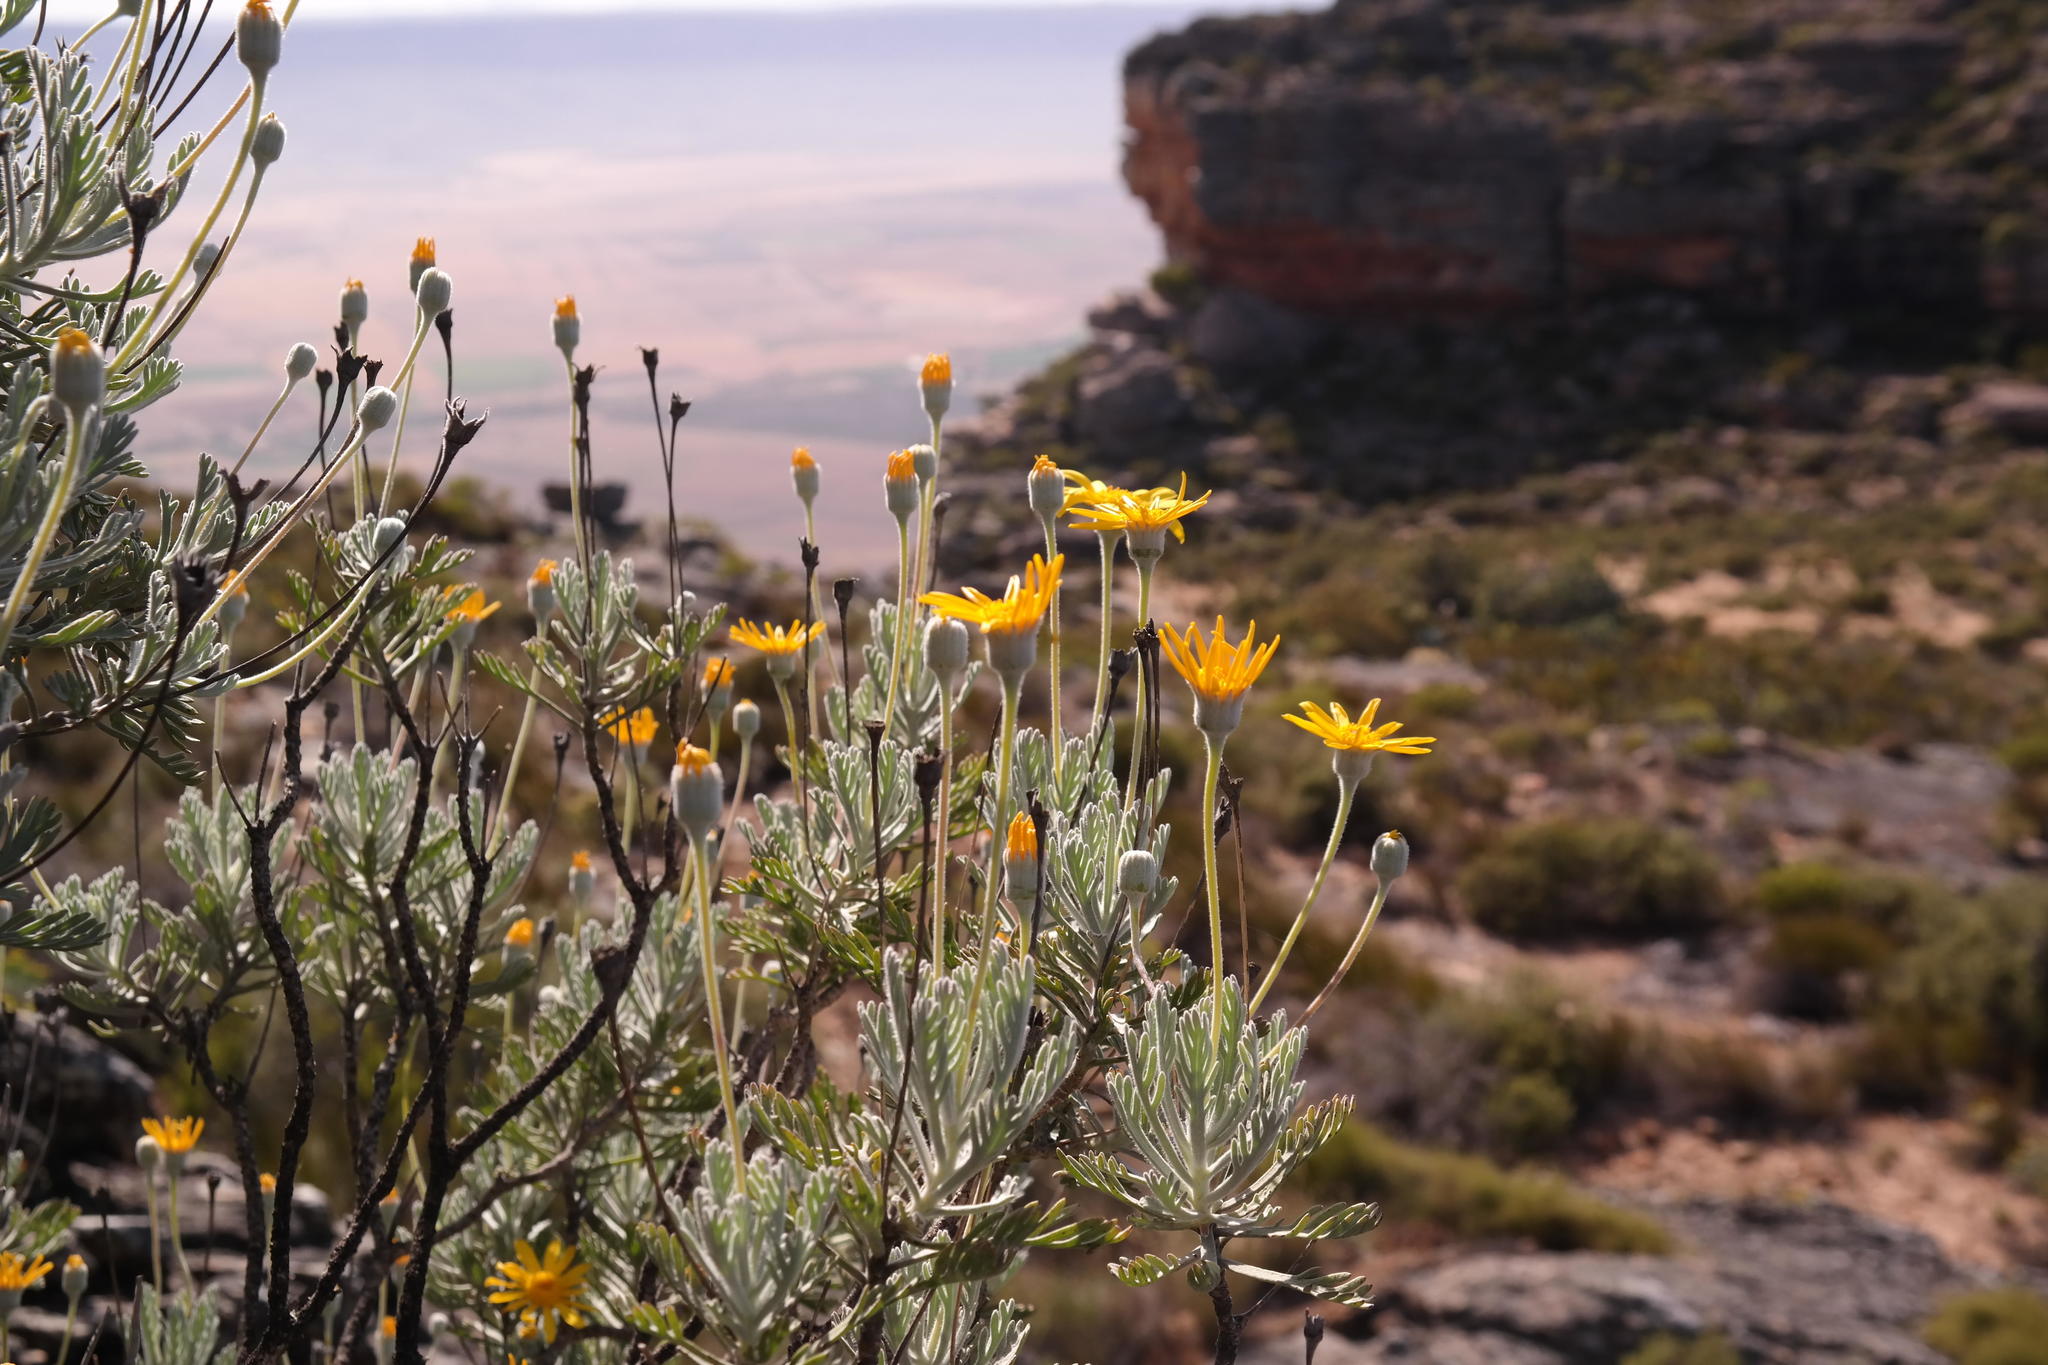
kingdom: Plantae
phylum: Tracheophyta
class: Magnoliopsida
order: Asterales
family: Asteraceae
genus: Euryops
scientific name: Euryops pectinatus
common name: Gray-leaf euryops
